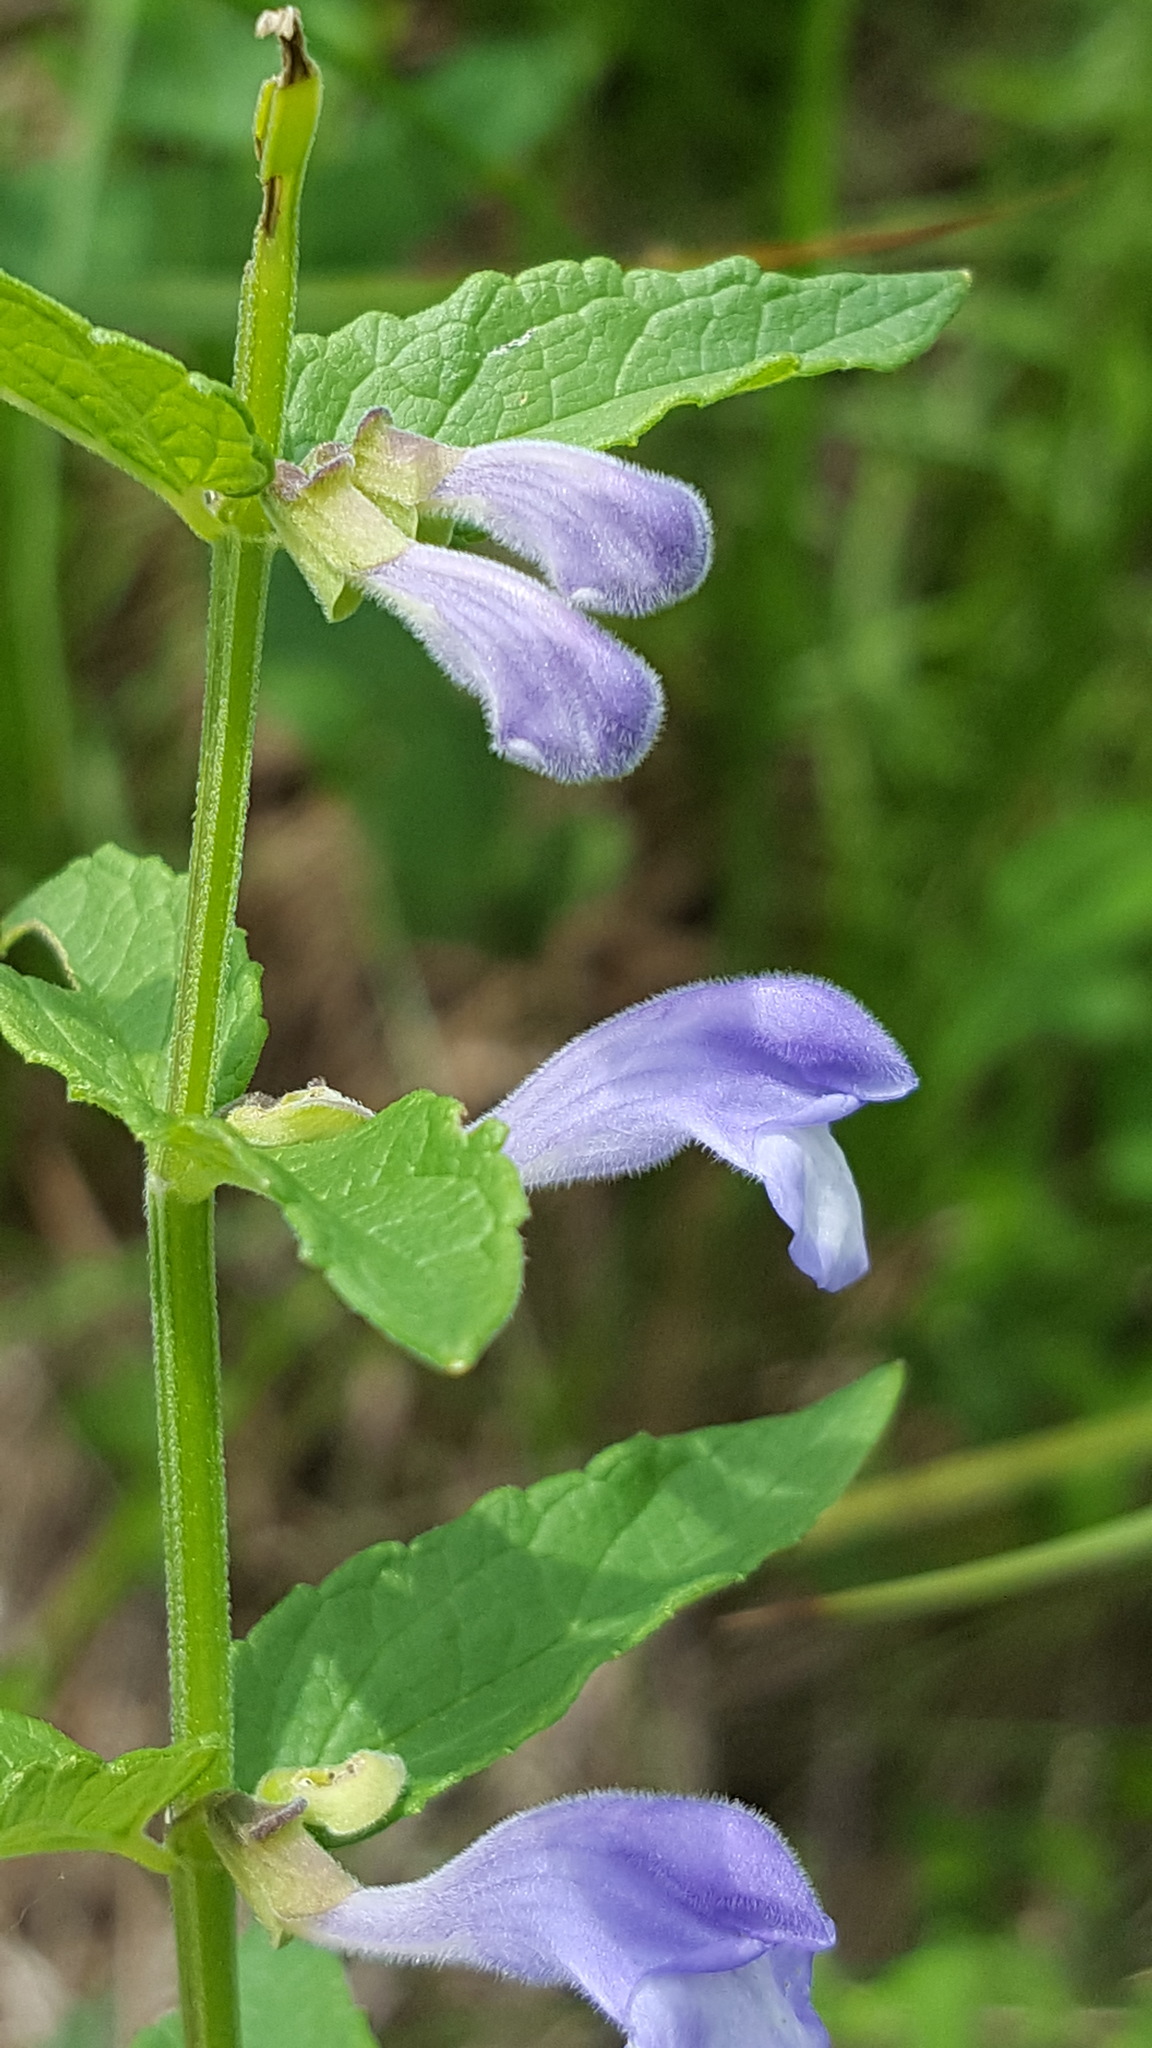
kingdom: Plantae
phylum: Tracheophyta
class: Magnoliopsida
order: Lamiales
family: Lamiaceae
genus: Scutellaria
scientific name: Scutellaria galericulata
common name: Skullcap
